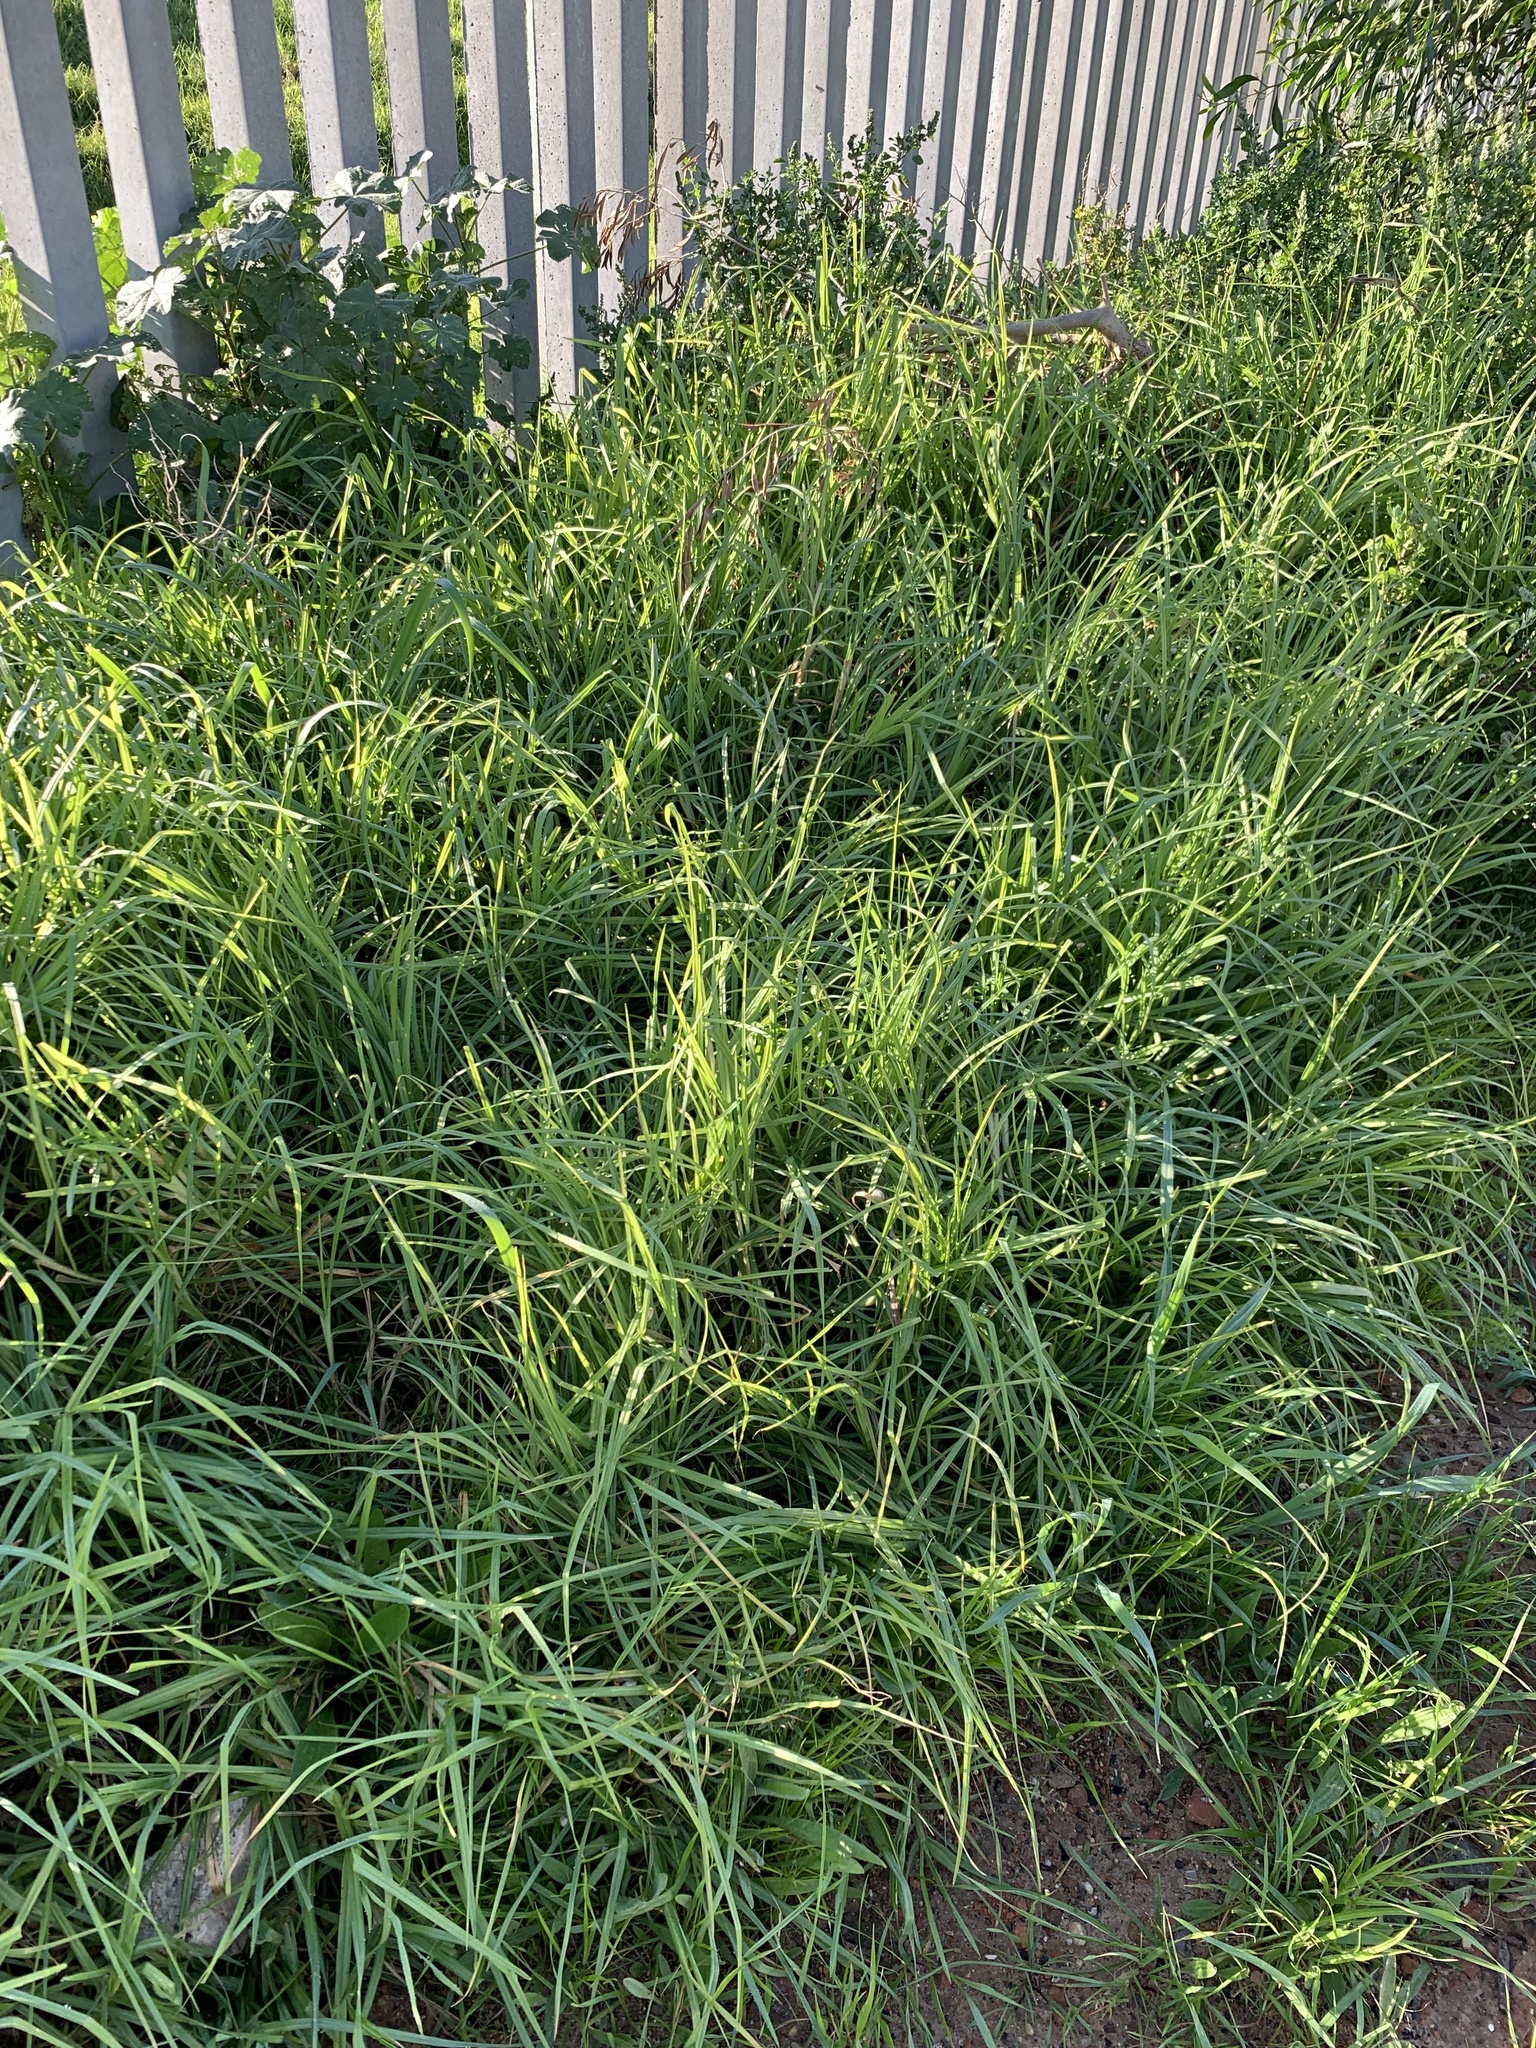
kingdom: Plantae
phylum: Tracheophyta
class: Liliopsida
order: Poales
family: Poaceae
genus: Cenchrus
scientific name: Cenchrus clandestinus
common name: Kikuyugrass
